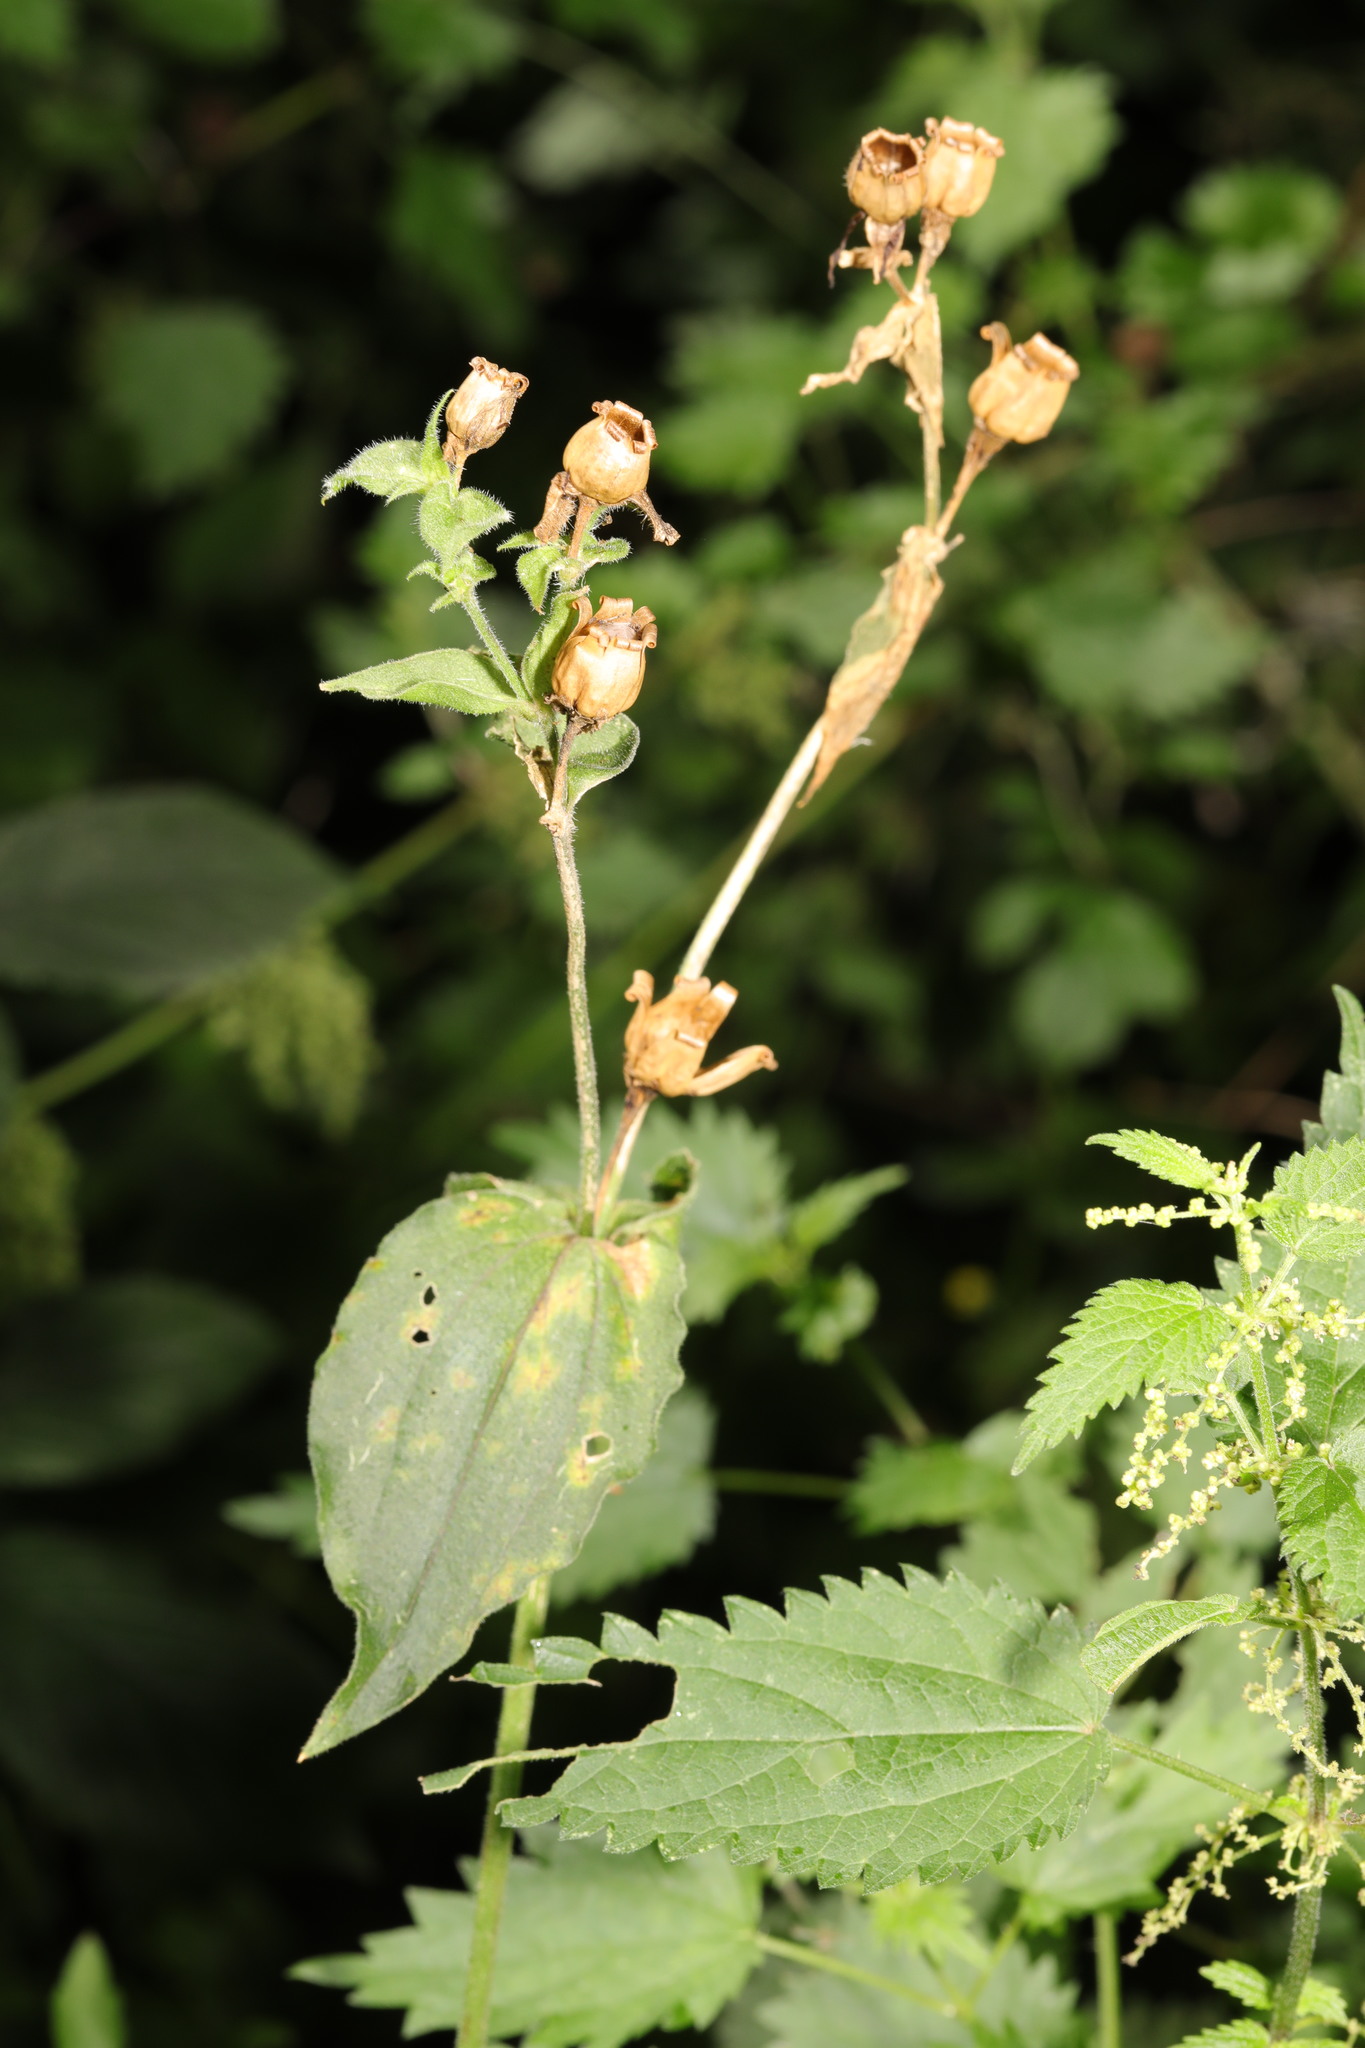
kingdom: Plantae
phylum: Tracheophyta
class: Magnoliopsida
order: Caryophyllales
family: Caryophyllaceae
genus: Silene
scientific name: Silene dioica
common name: Red campion
